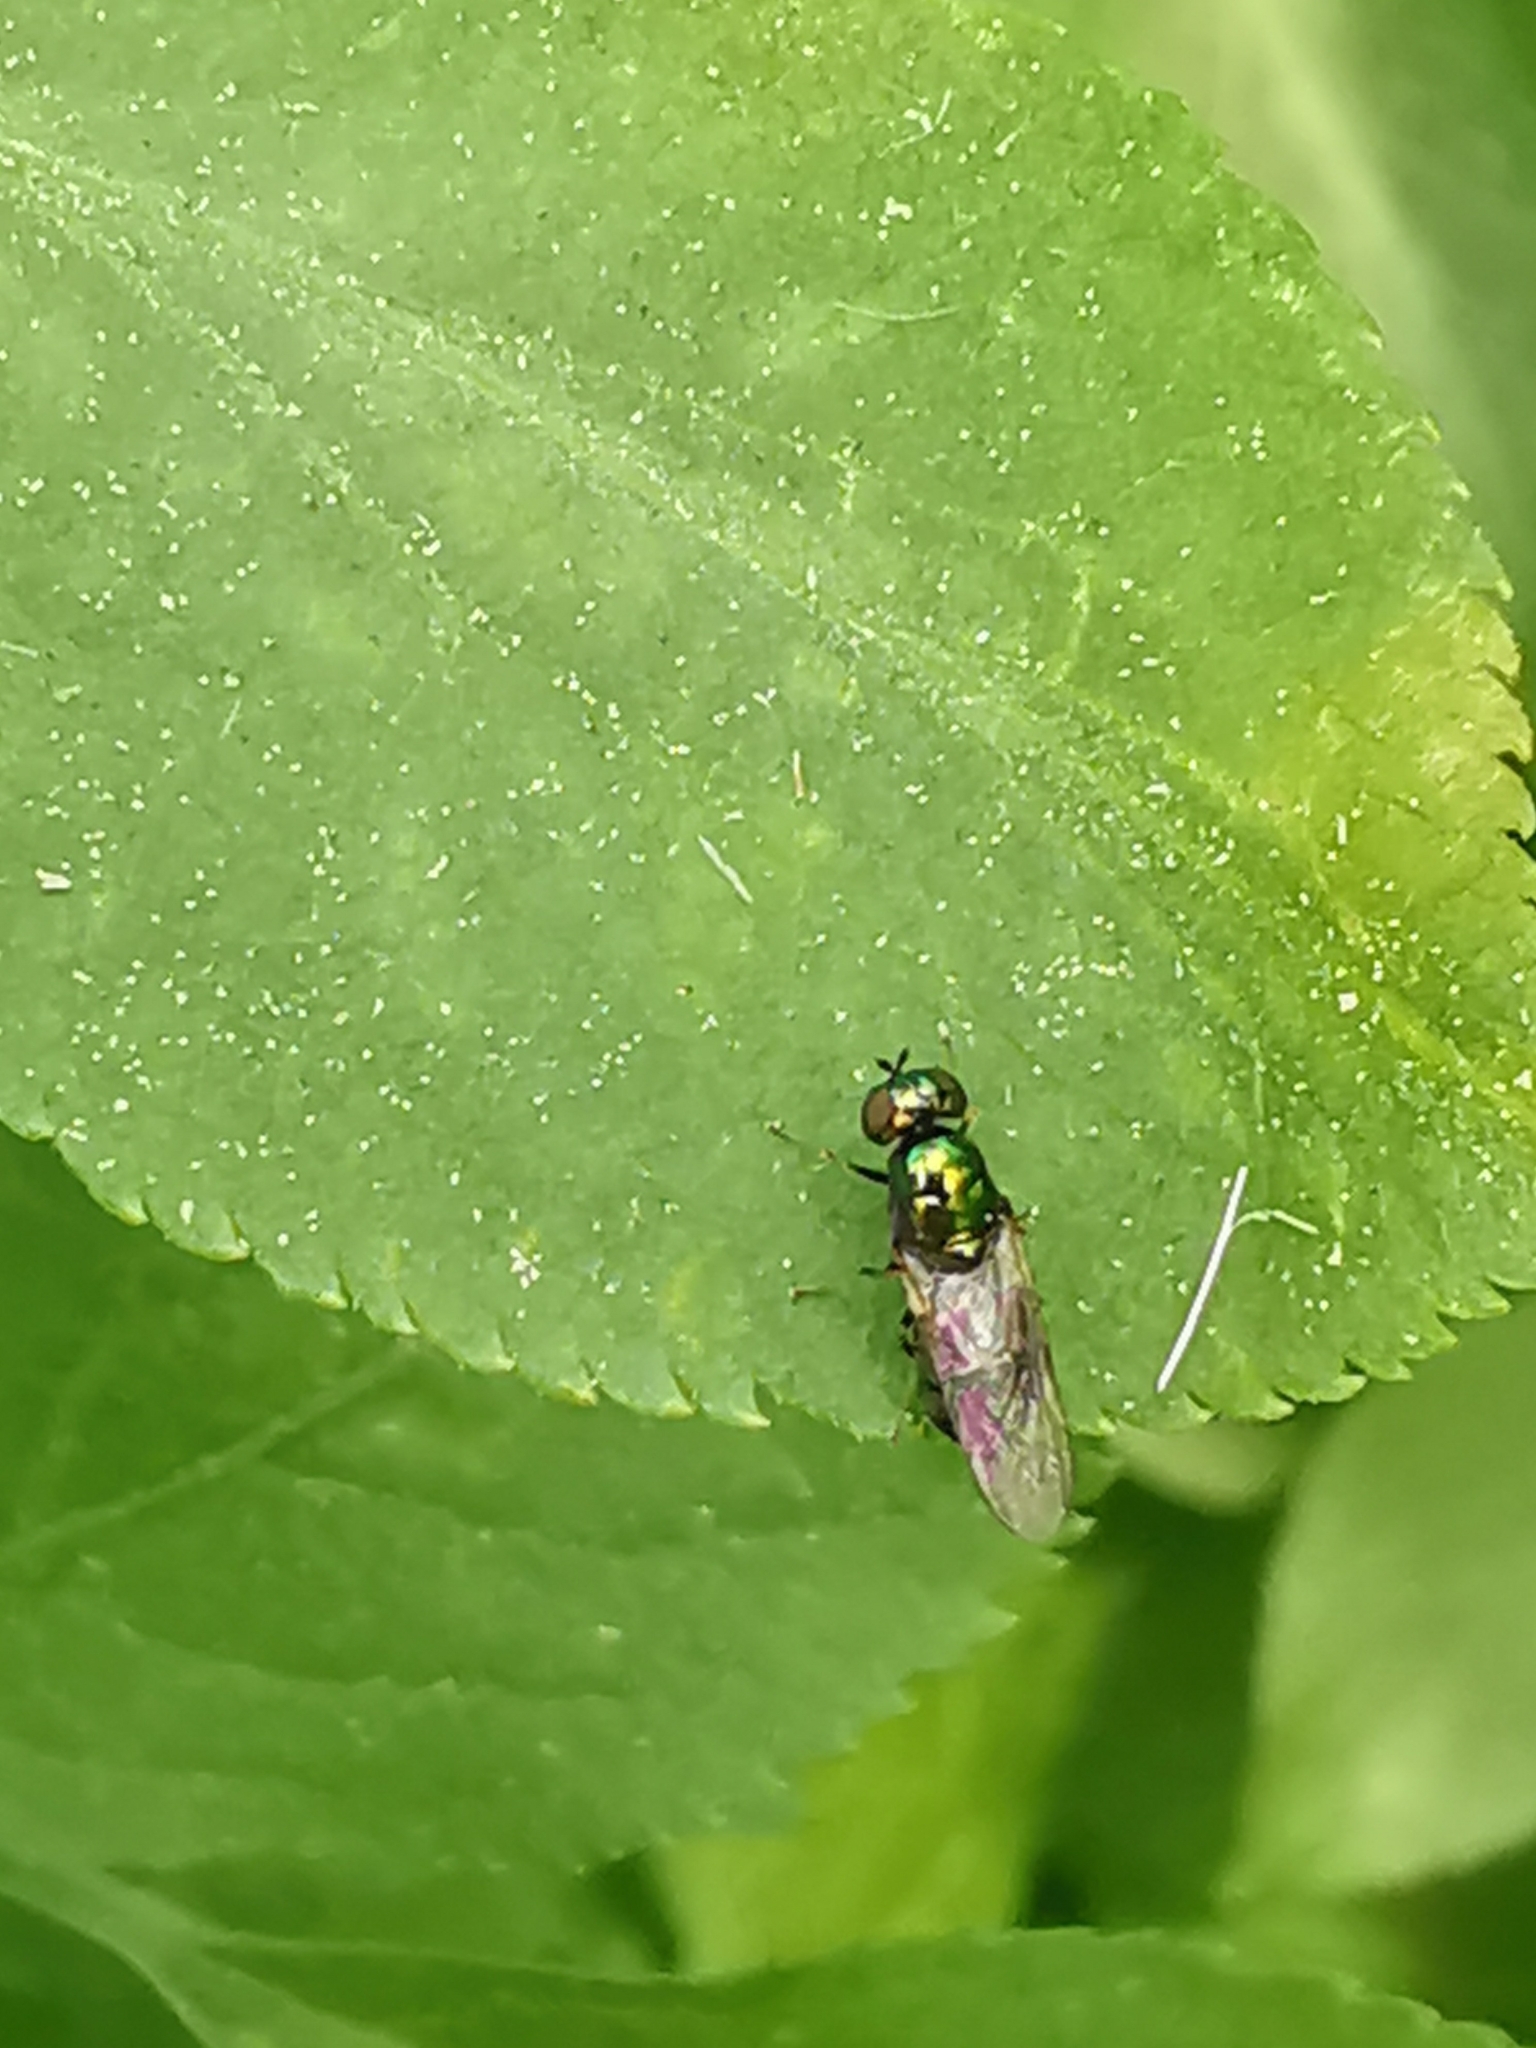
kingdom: Animalia
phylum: Arthropoda
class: Insecta
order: Diptera
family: Stratiomyidae
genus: Microchrysa
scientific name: Microchrysa polita
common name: Black-horned gem
